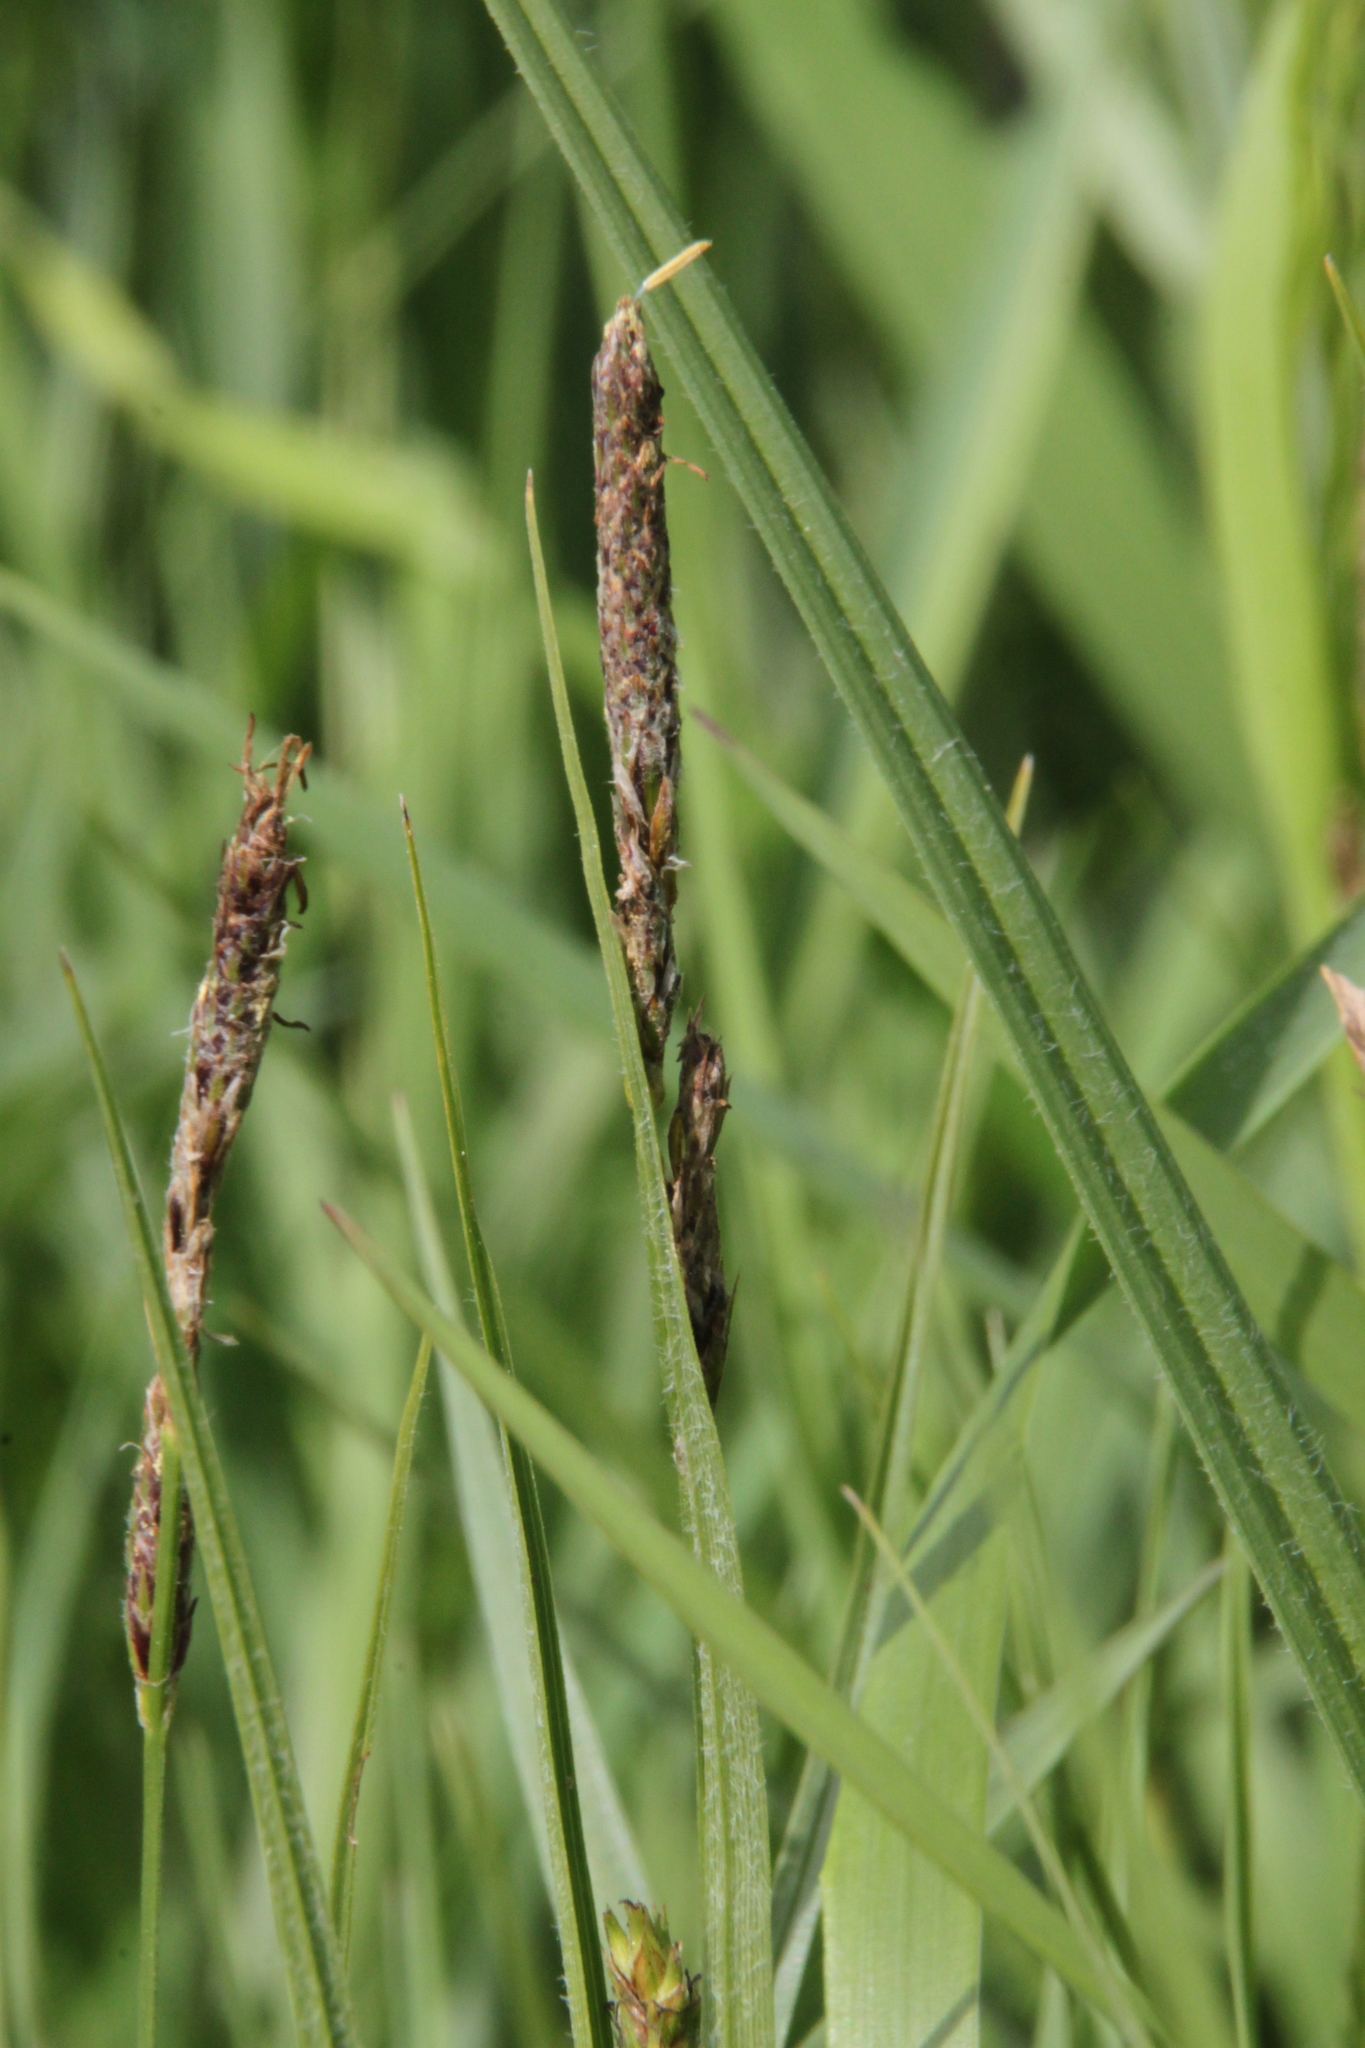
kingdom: Plantae
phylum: Tracheophyta
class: Liliopsida
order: Poales
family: Cyperaceae
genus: Carex
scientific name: Carex hirta
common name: Hairy sedge
